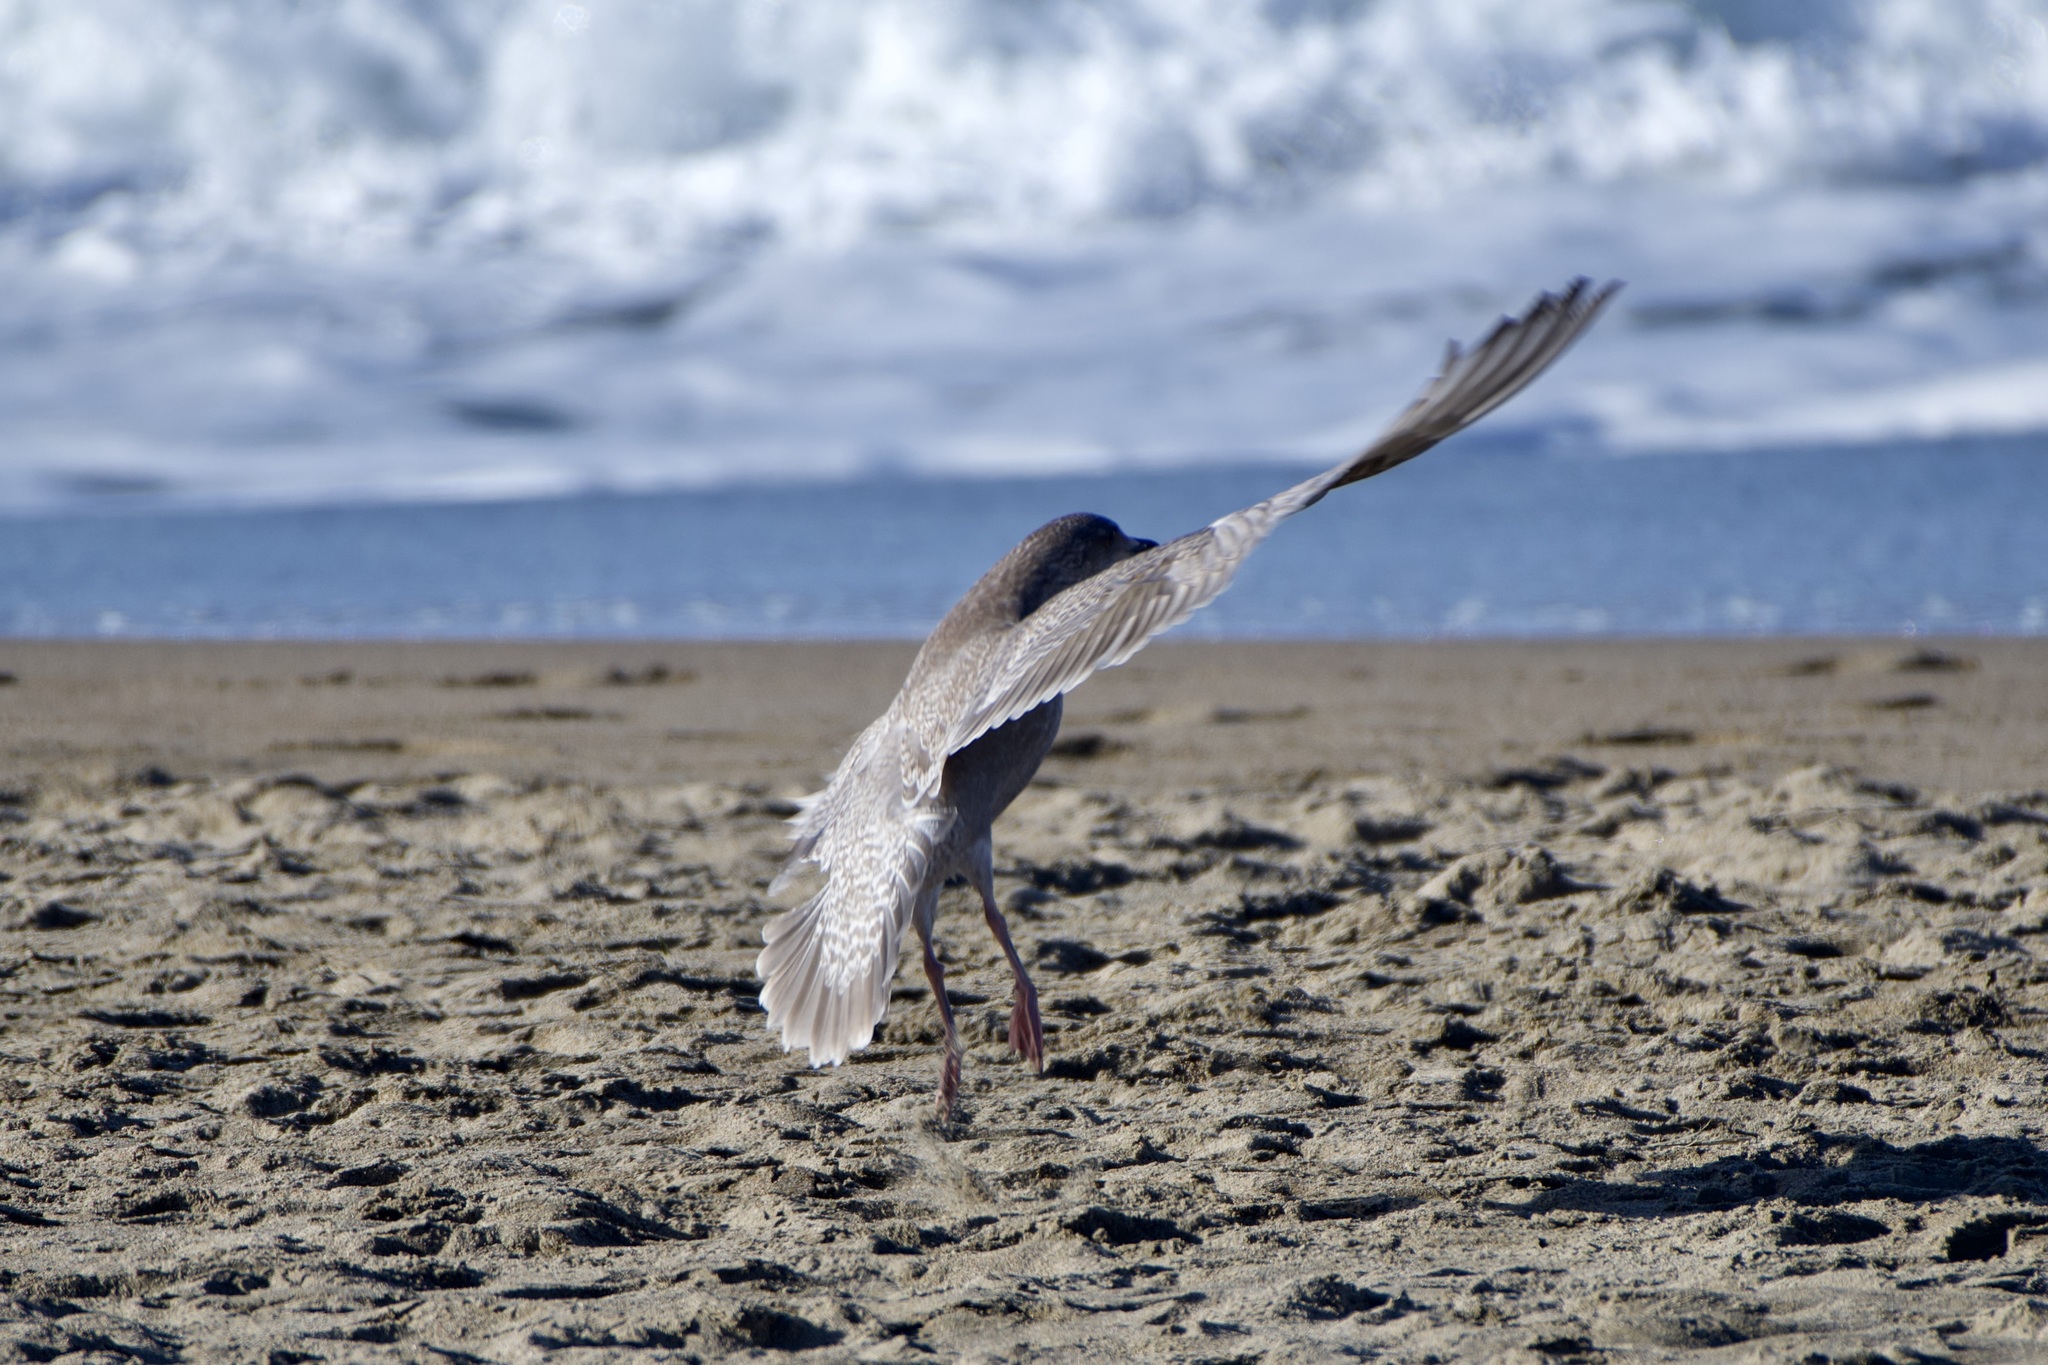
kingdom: Animalia
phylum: Chordata
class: Aves
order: Charadriiformes
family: Laridae
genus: Larus
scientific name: Larus
